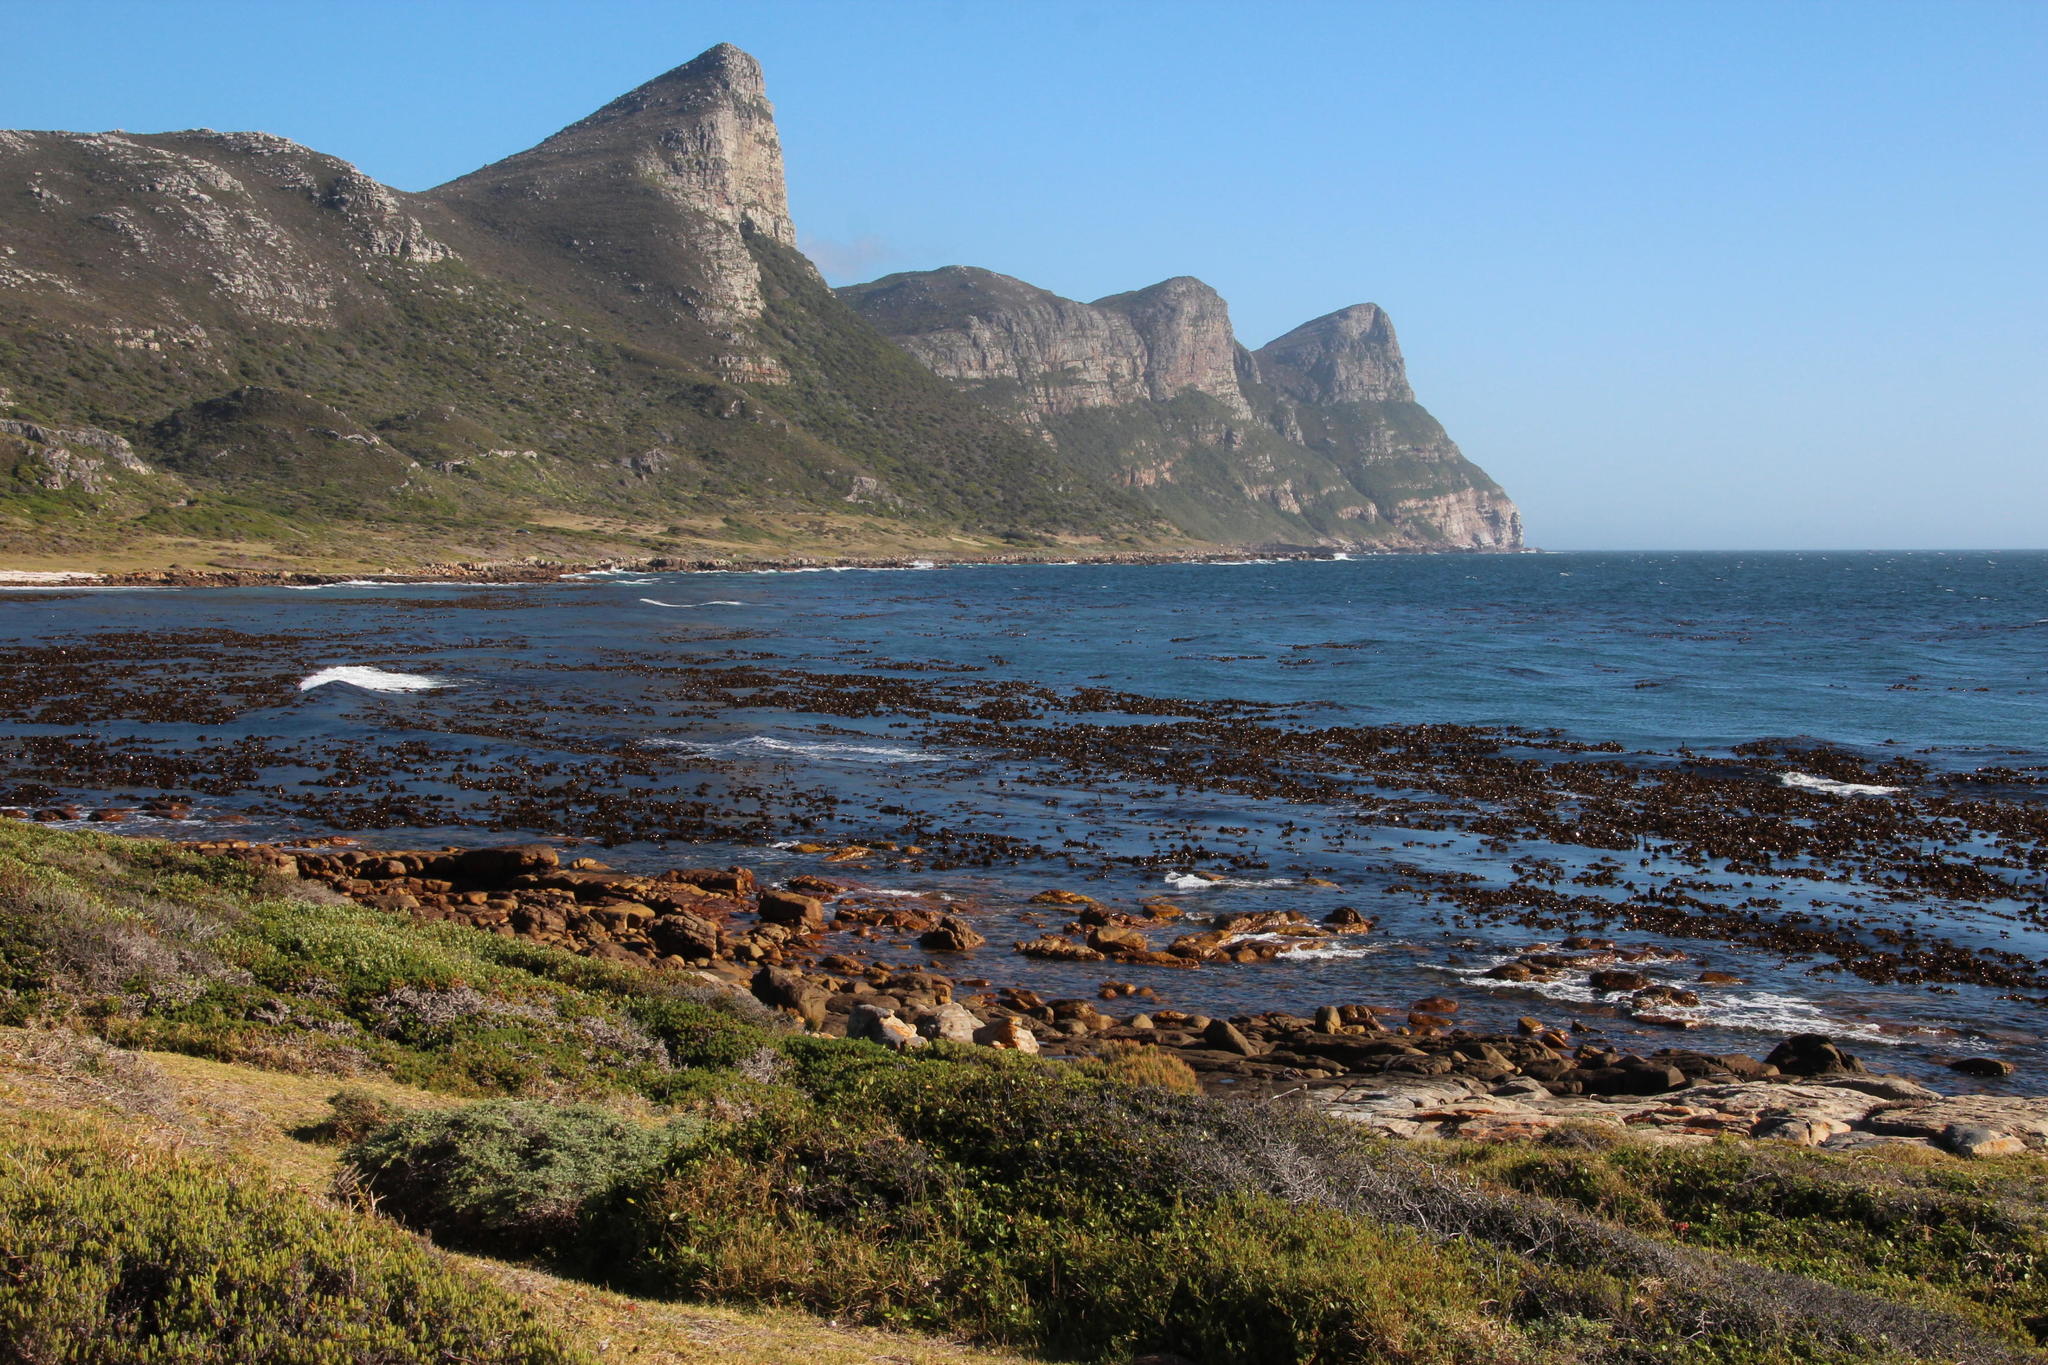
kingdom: Chromista
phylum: Ochrophyta
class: Phaeophyceae
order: Laminariales
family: Lessoniaceae
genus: Ecklonia
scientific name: Ecklonia
